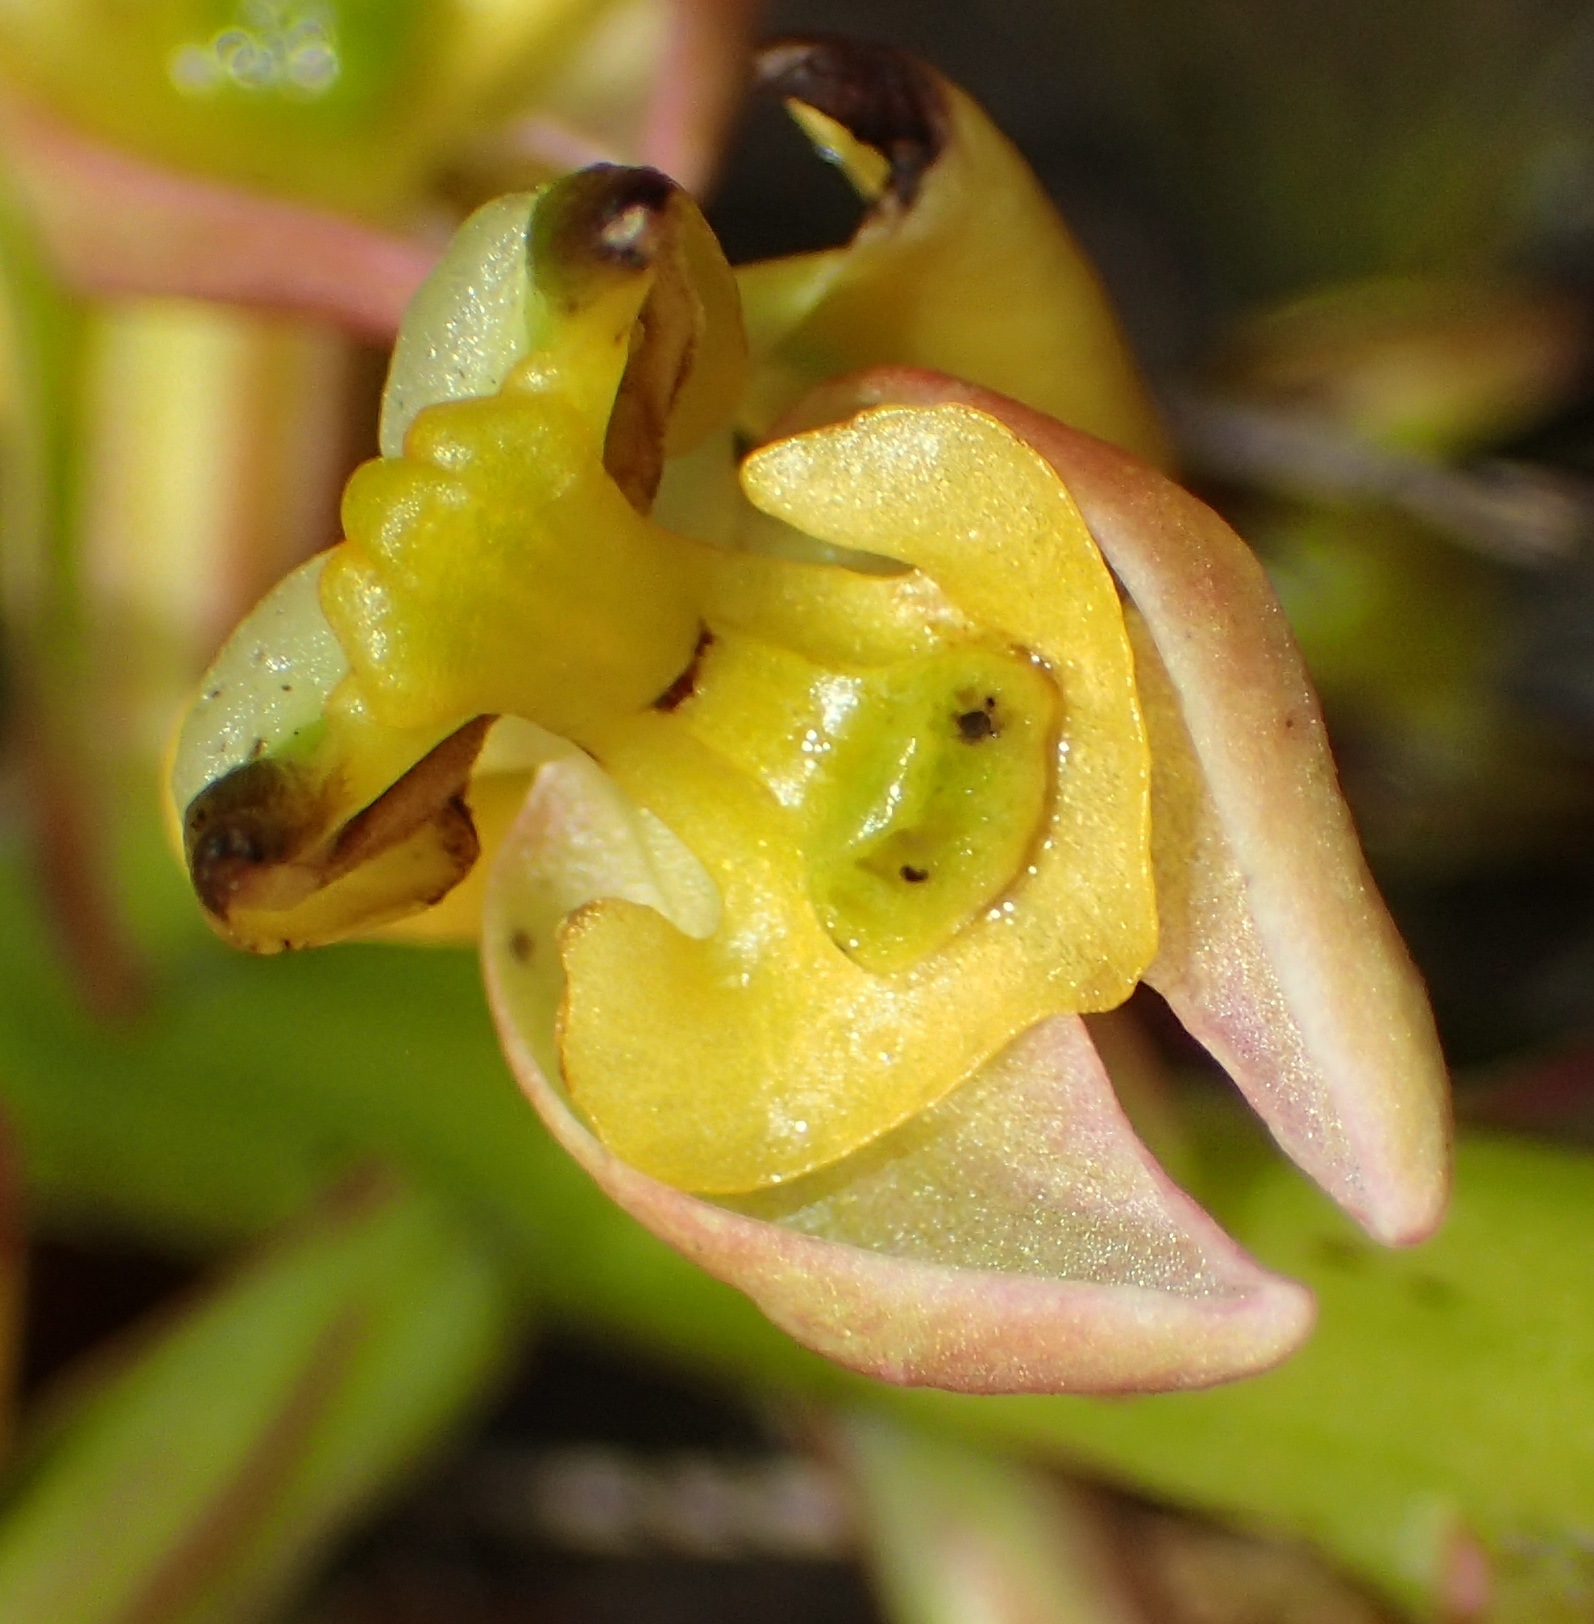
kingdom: Plantae
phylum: Tracheophyta
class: Liliopsida
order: Asparagales
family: Orchidaceae
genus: Ceratandra
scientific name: Ceratandra atrata
